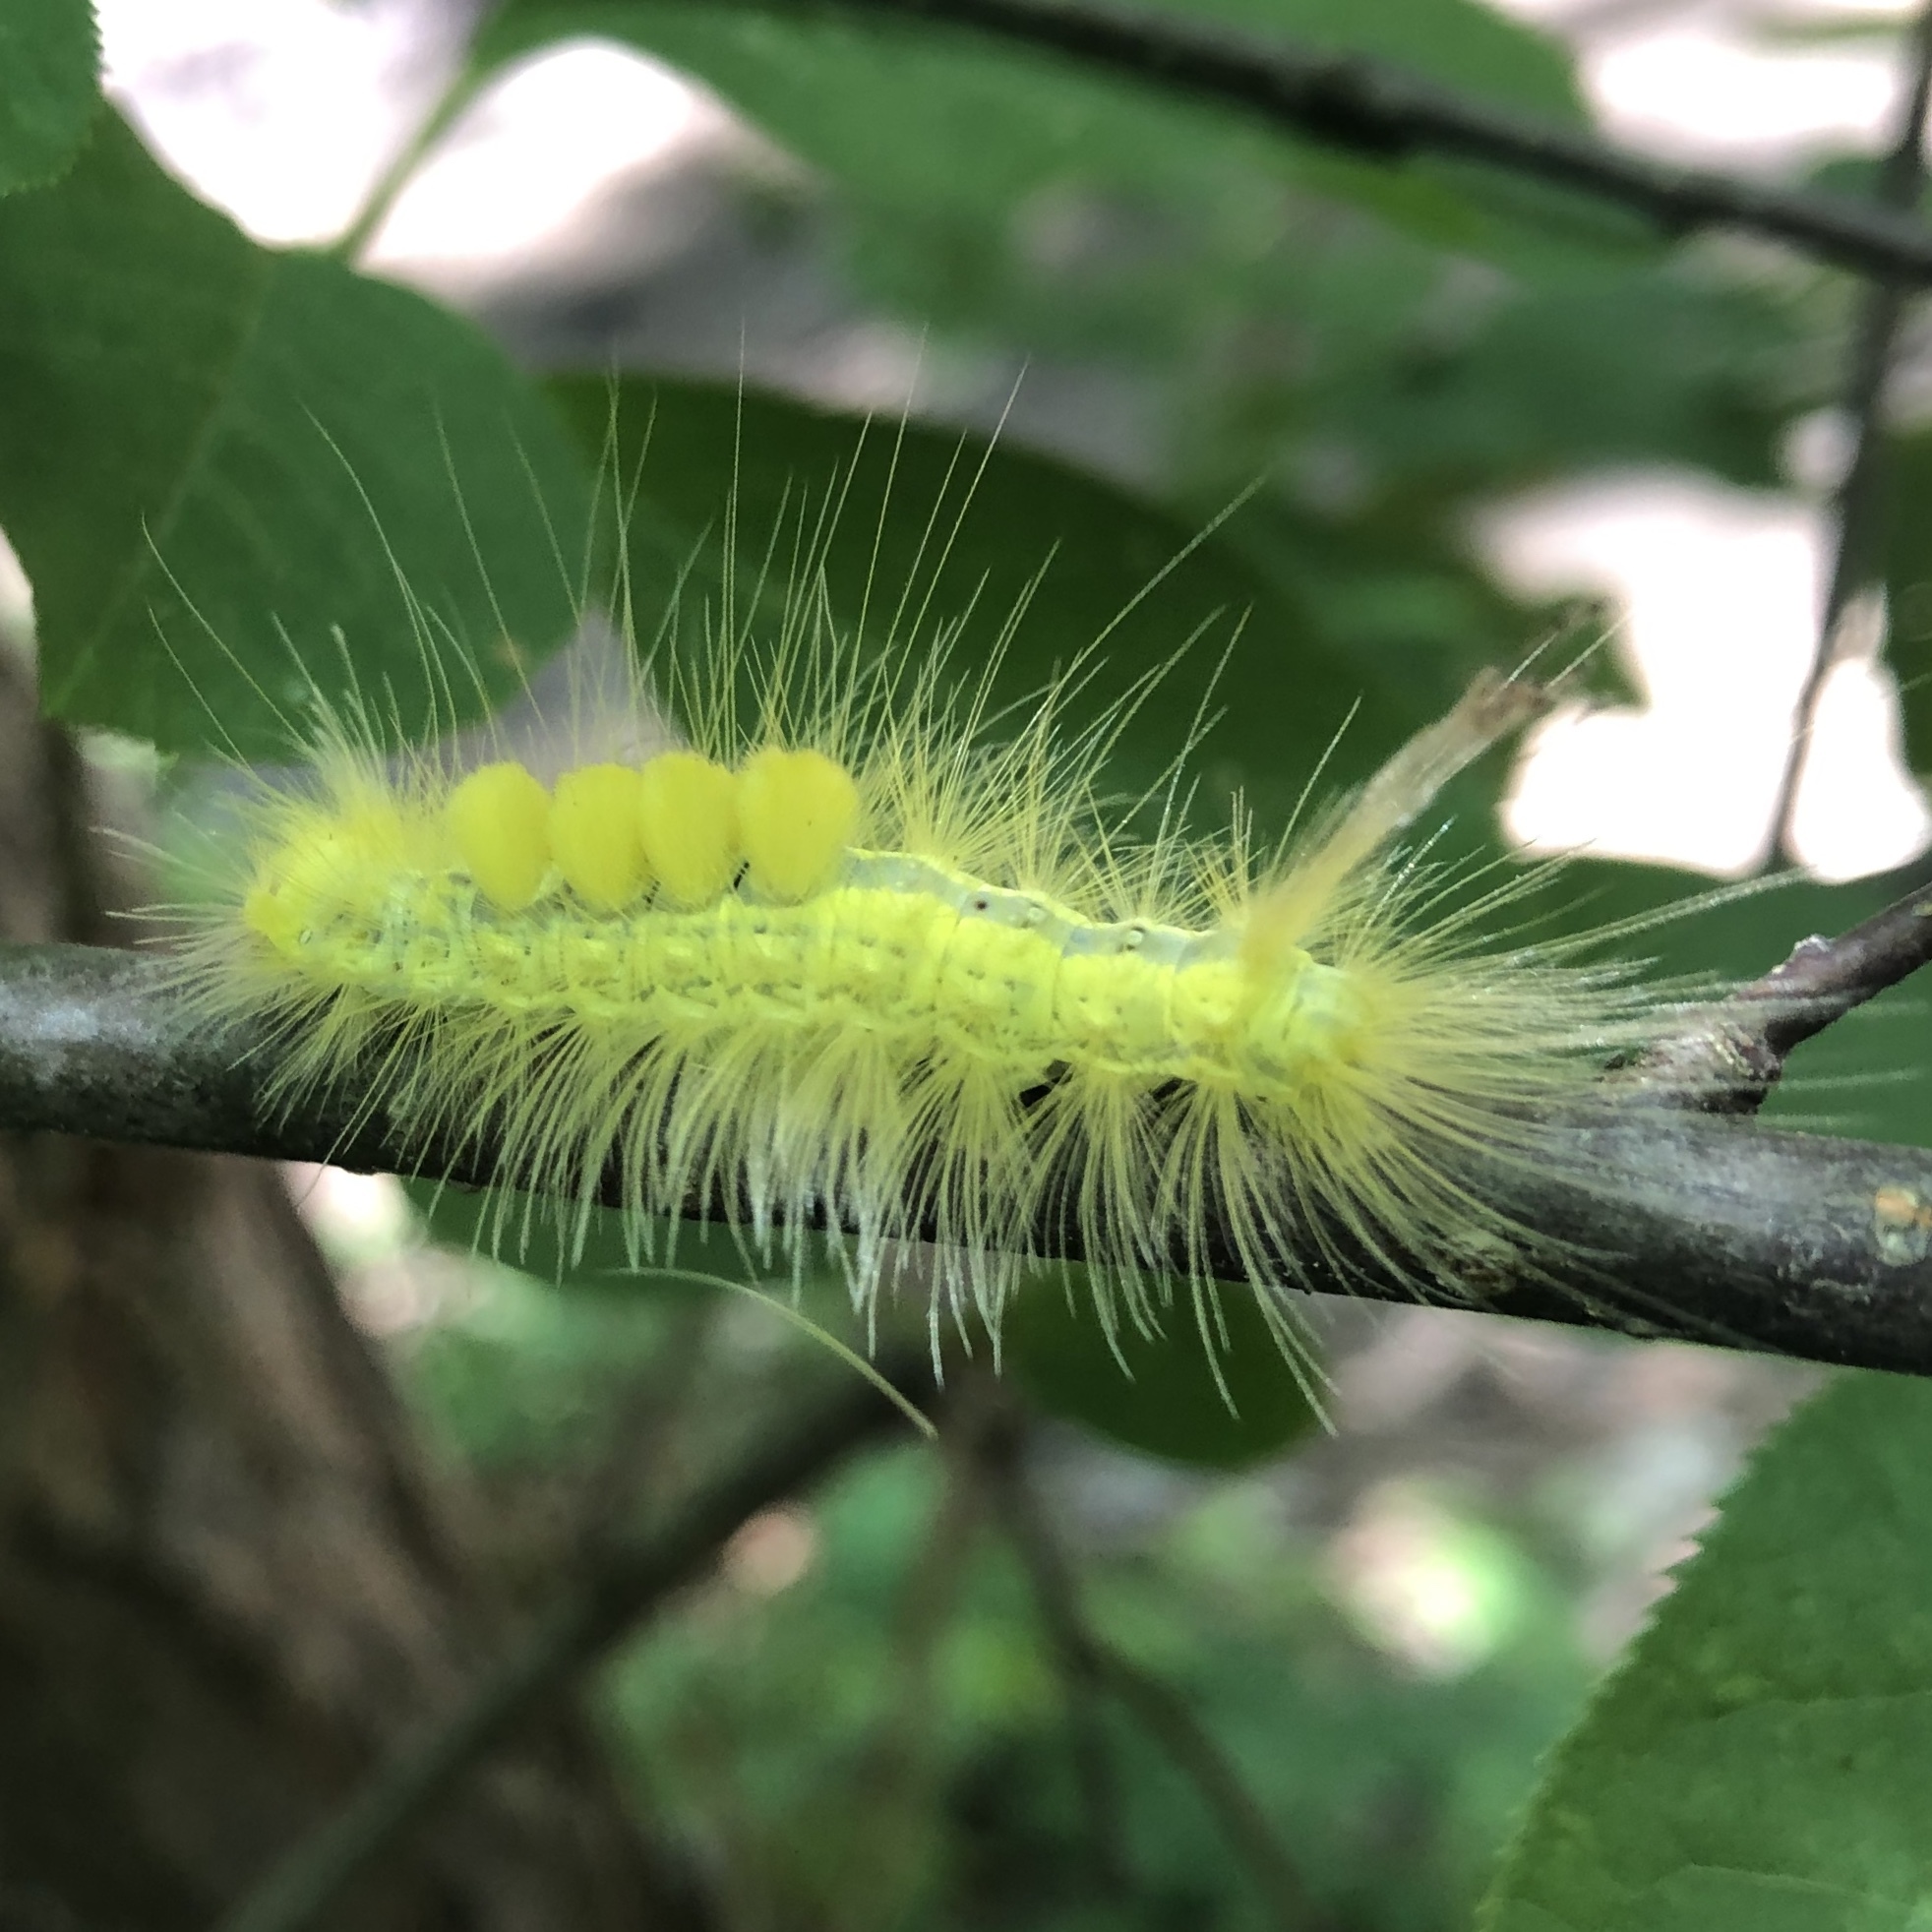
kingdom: Animalia
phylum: Arthropoda
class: Insecta
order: Lepidoptera
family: Erebidae
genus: Orgyia
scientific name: Orgyia definita
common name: Definite tussock moth
